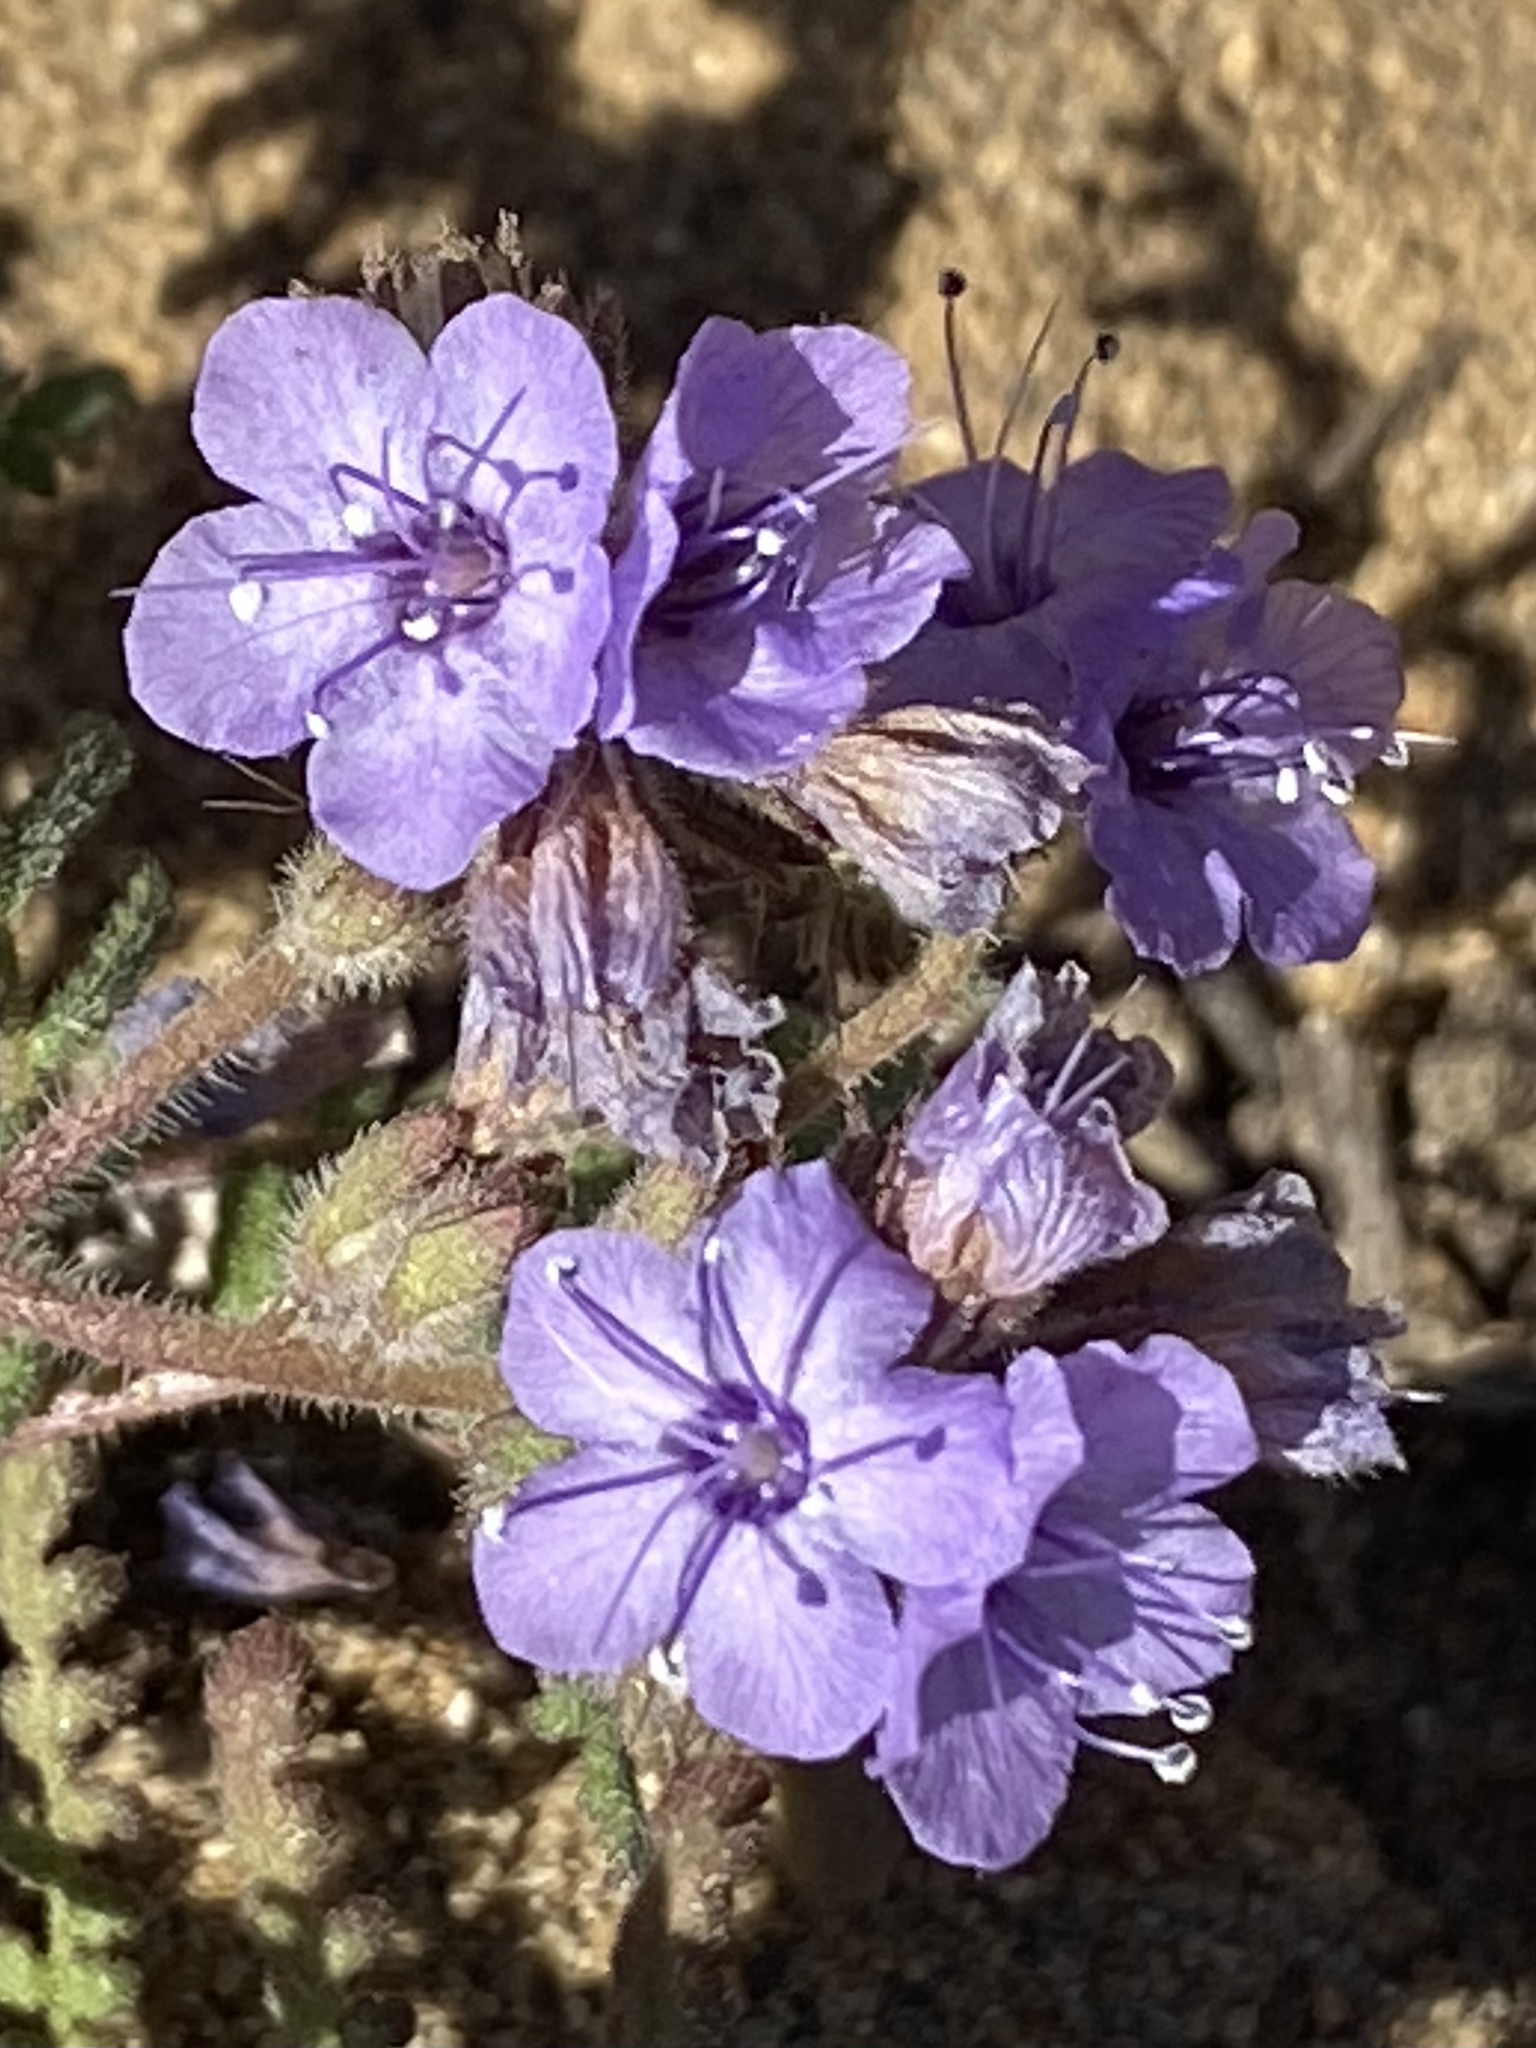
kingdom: Plantae
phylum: Tracheophyta
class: Magnoliopsida
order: Boraginales
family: Hydrophyllaceae
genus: Phacelia
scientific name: Phacelia distans
